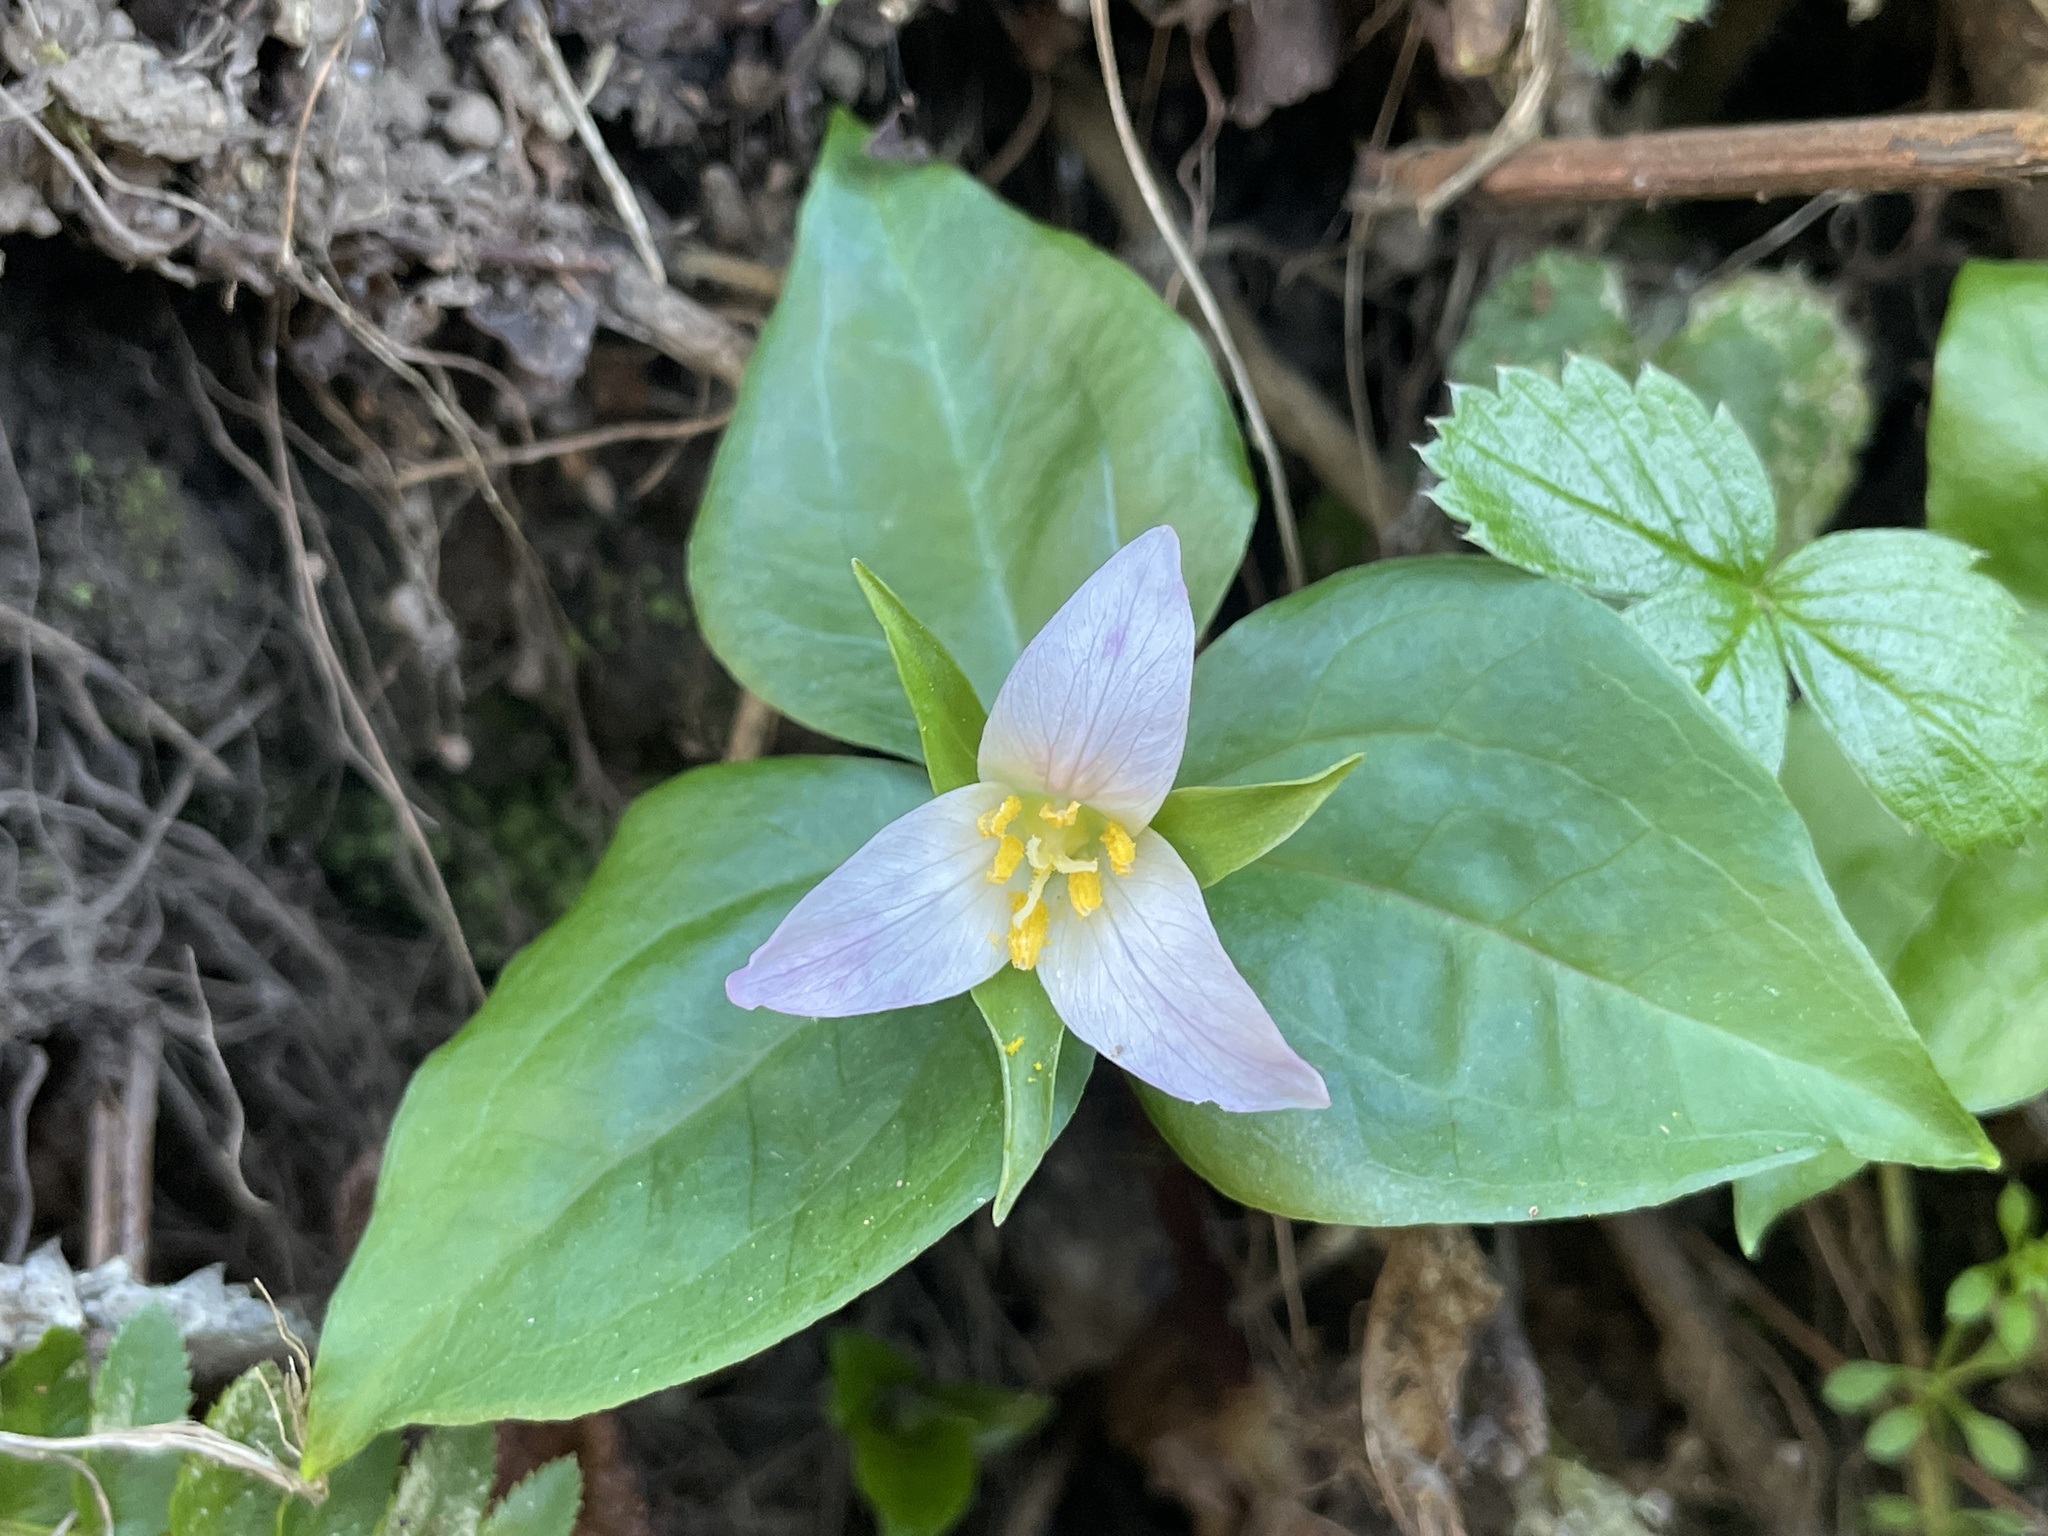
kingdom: Plantae
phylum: Tracheophyta
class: Liliopsida
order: Liliales
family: Melanthiaceae
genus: Trillium
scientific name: Trillium ovatum
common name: Pacific trillium
